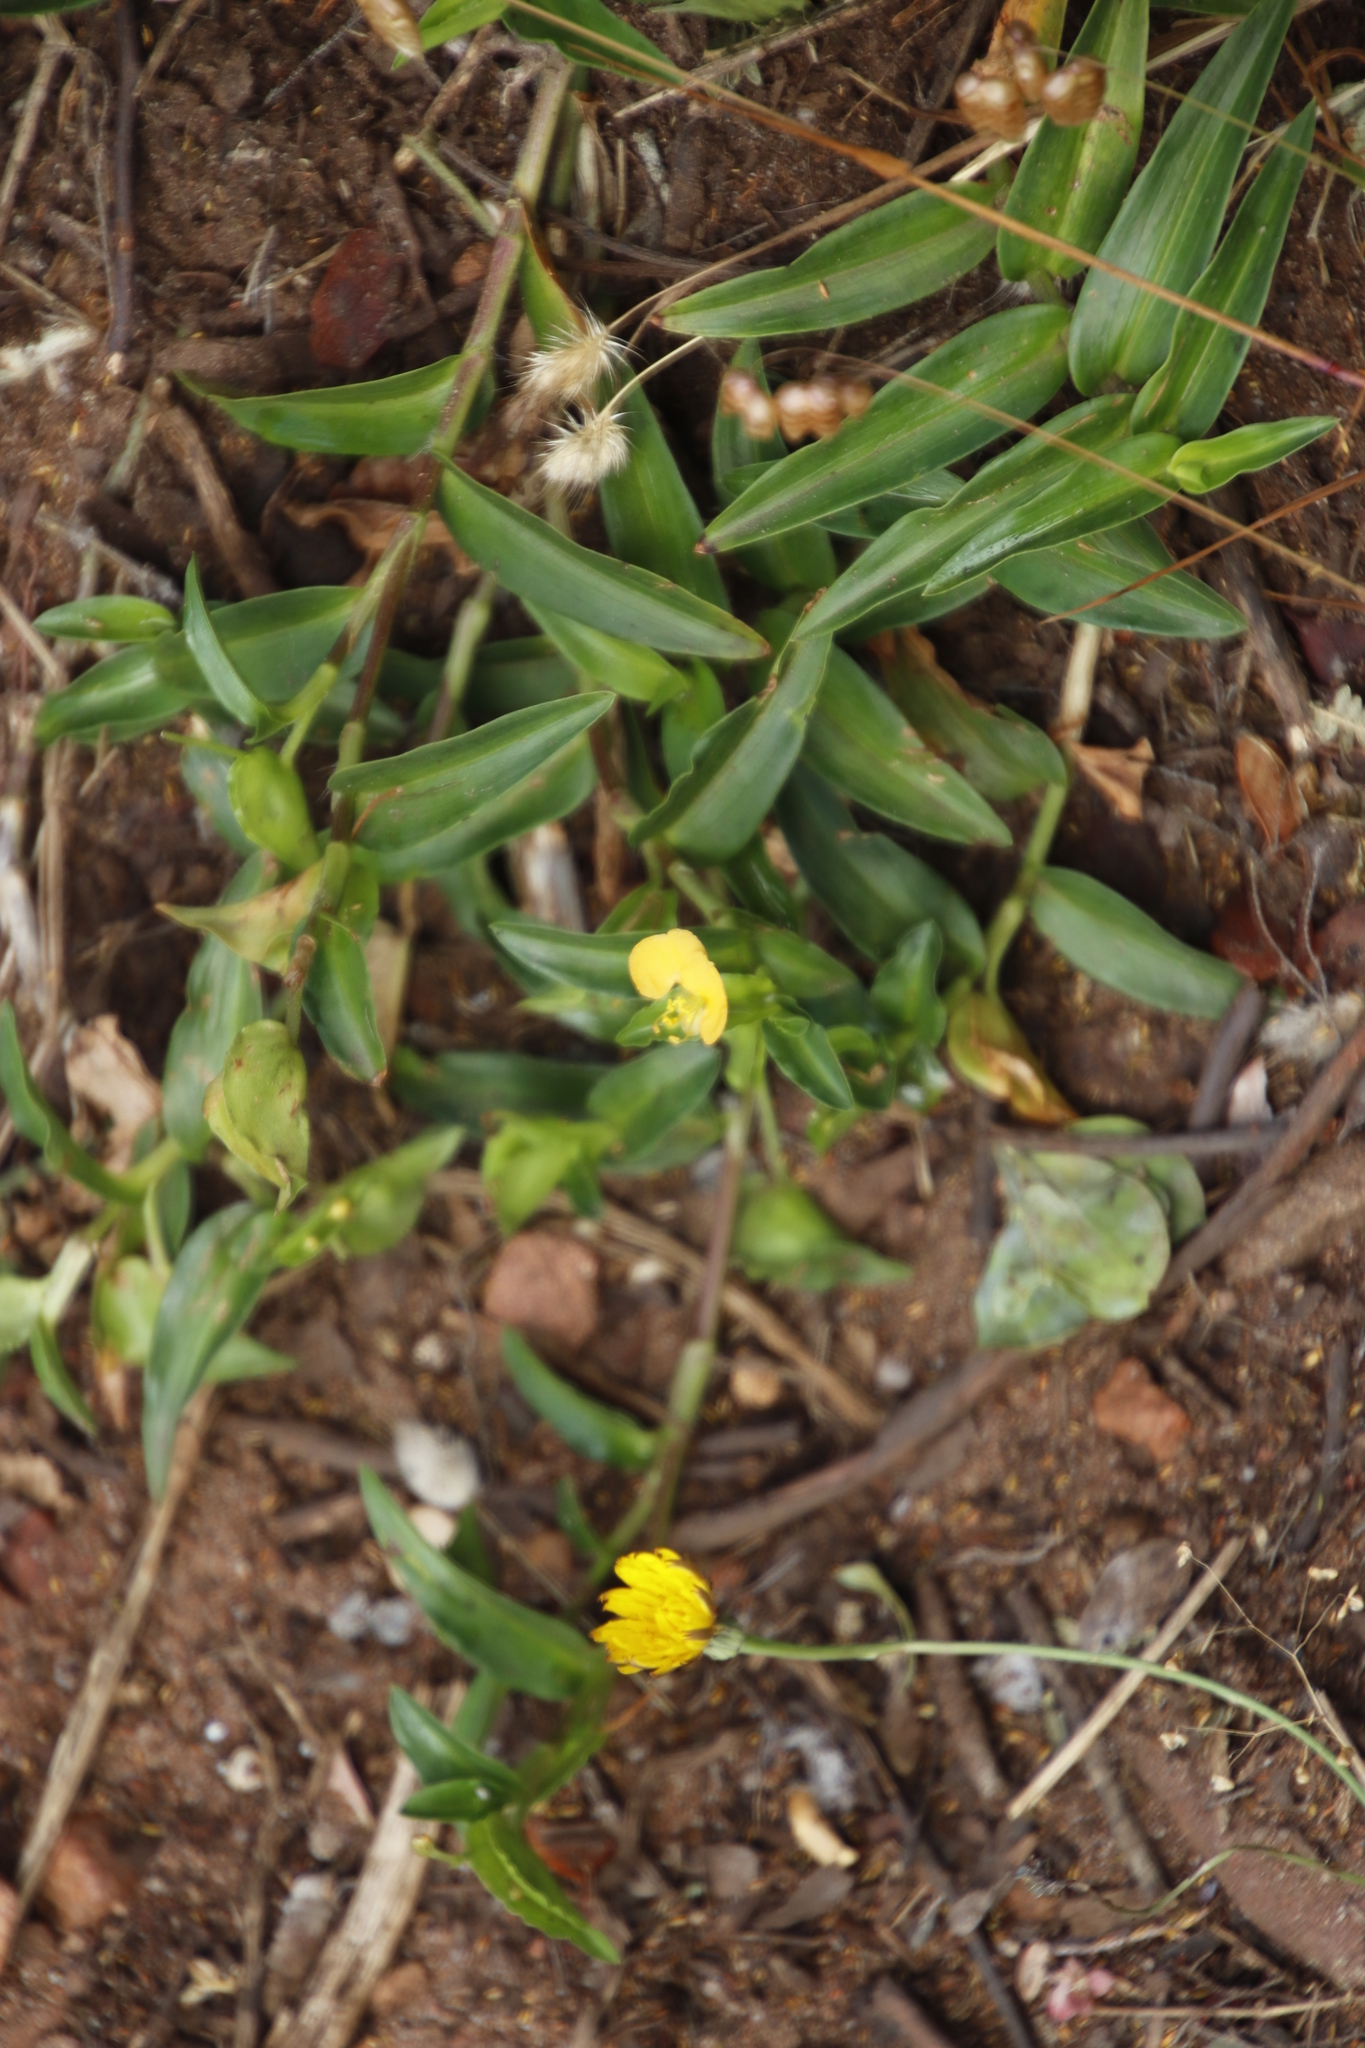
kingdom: Plantae
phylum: Tracheophyta
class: Liliopsida
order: Commelinales
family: Commelinaceae
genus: Commelina
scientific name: Commelina africana
